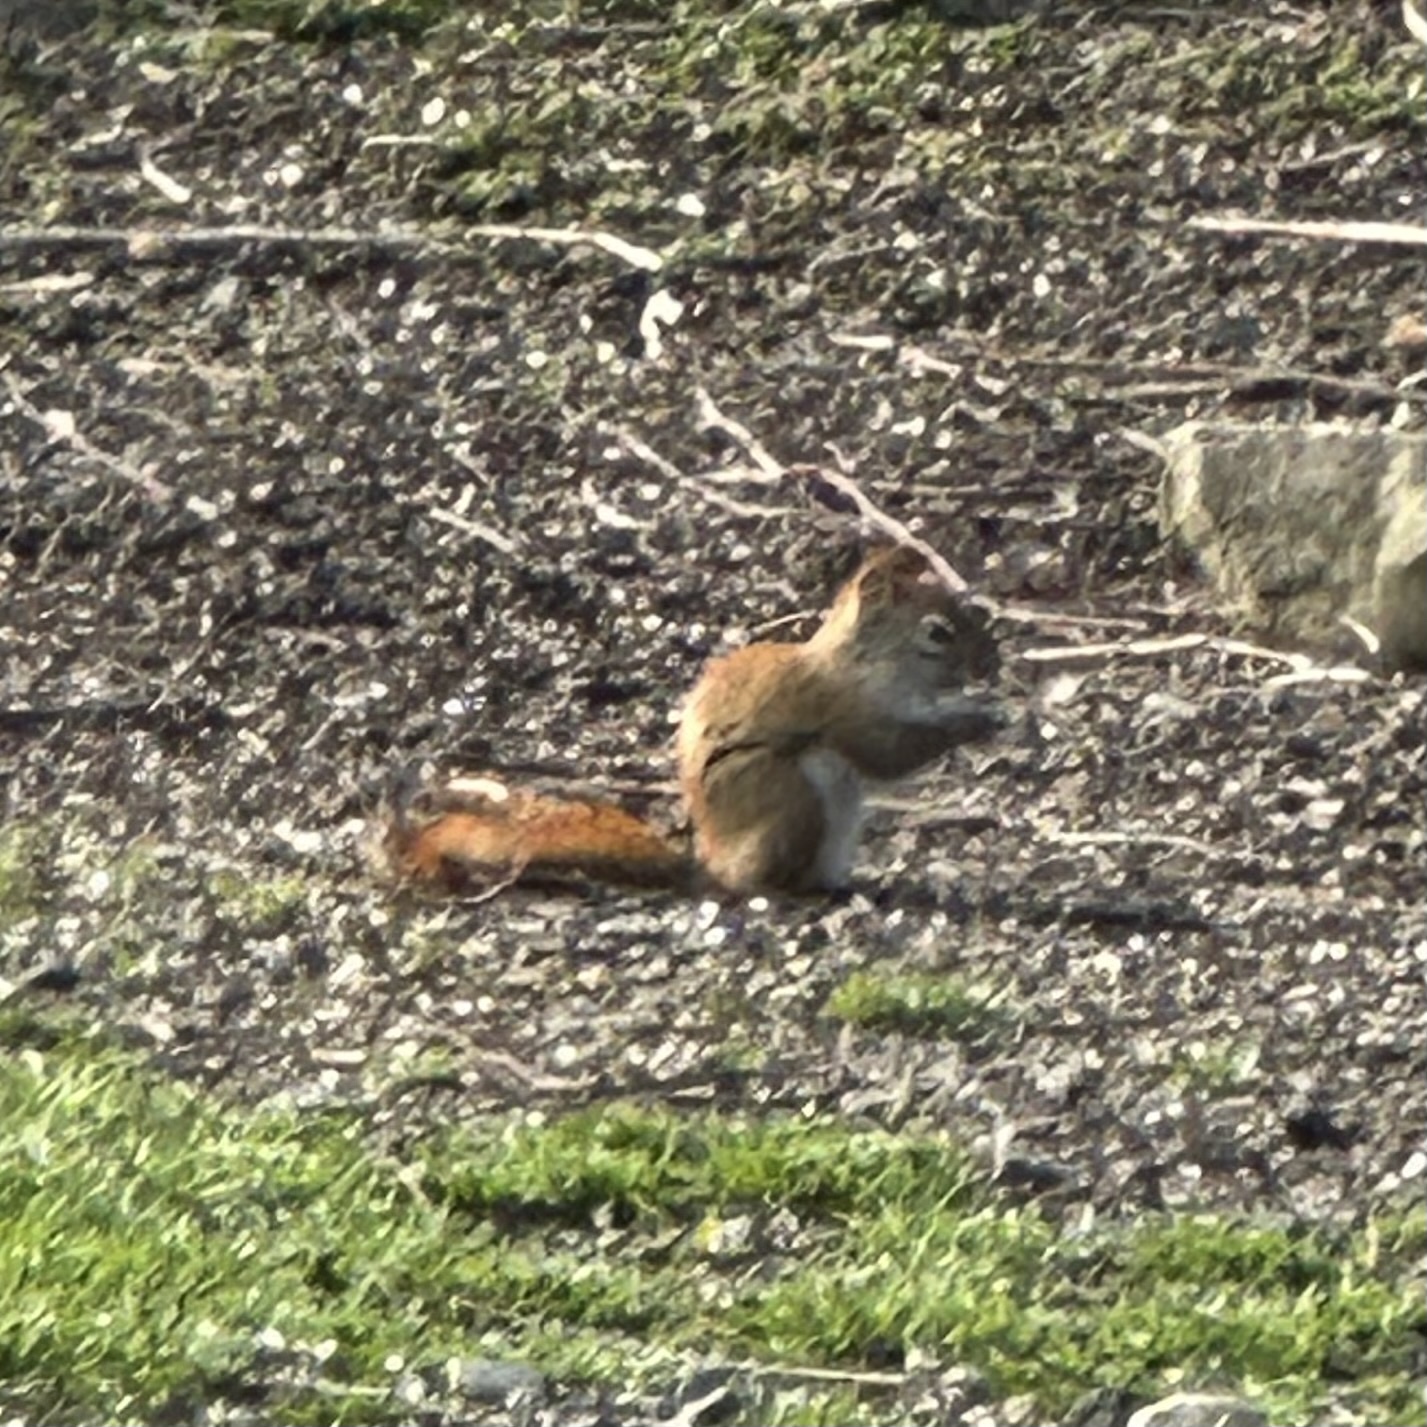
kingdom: Animalia
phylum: Chordata
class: Mammalia
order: Rodentia
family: Sciuridae
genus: Tamiasciurus
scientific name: Tamiasciurus hudsonicus
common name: Red squirrel
